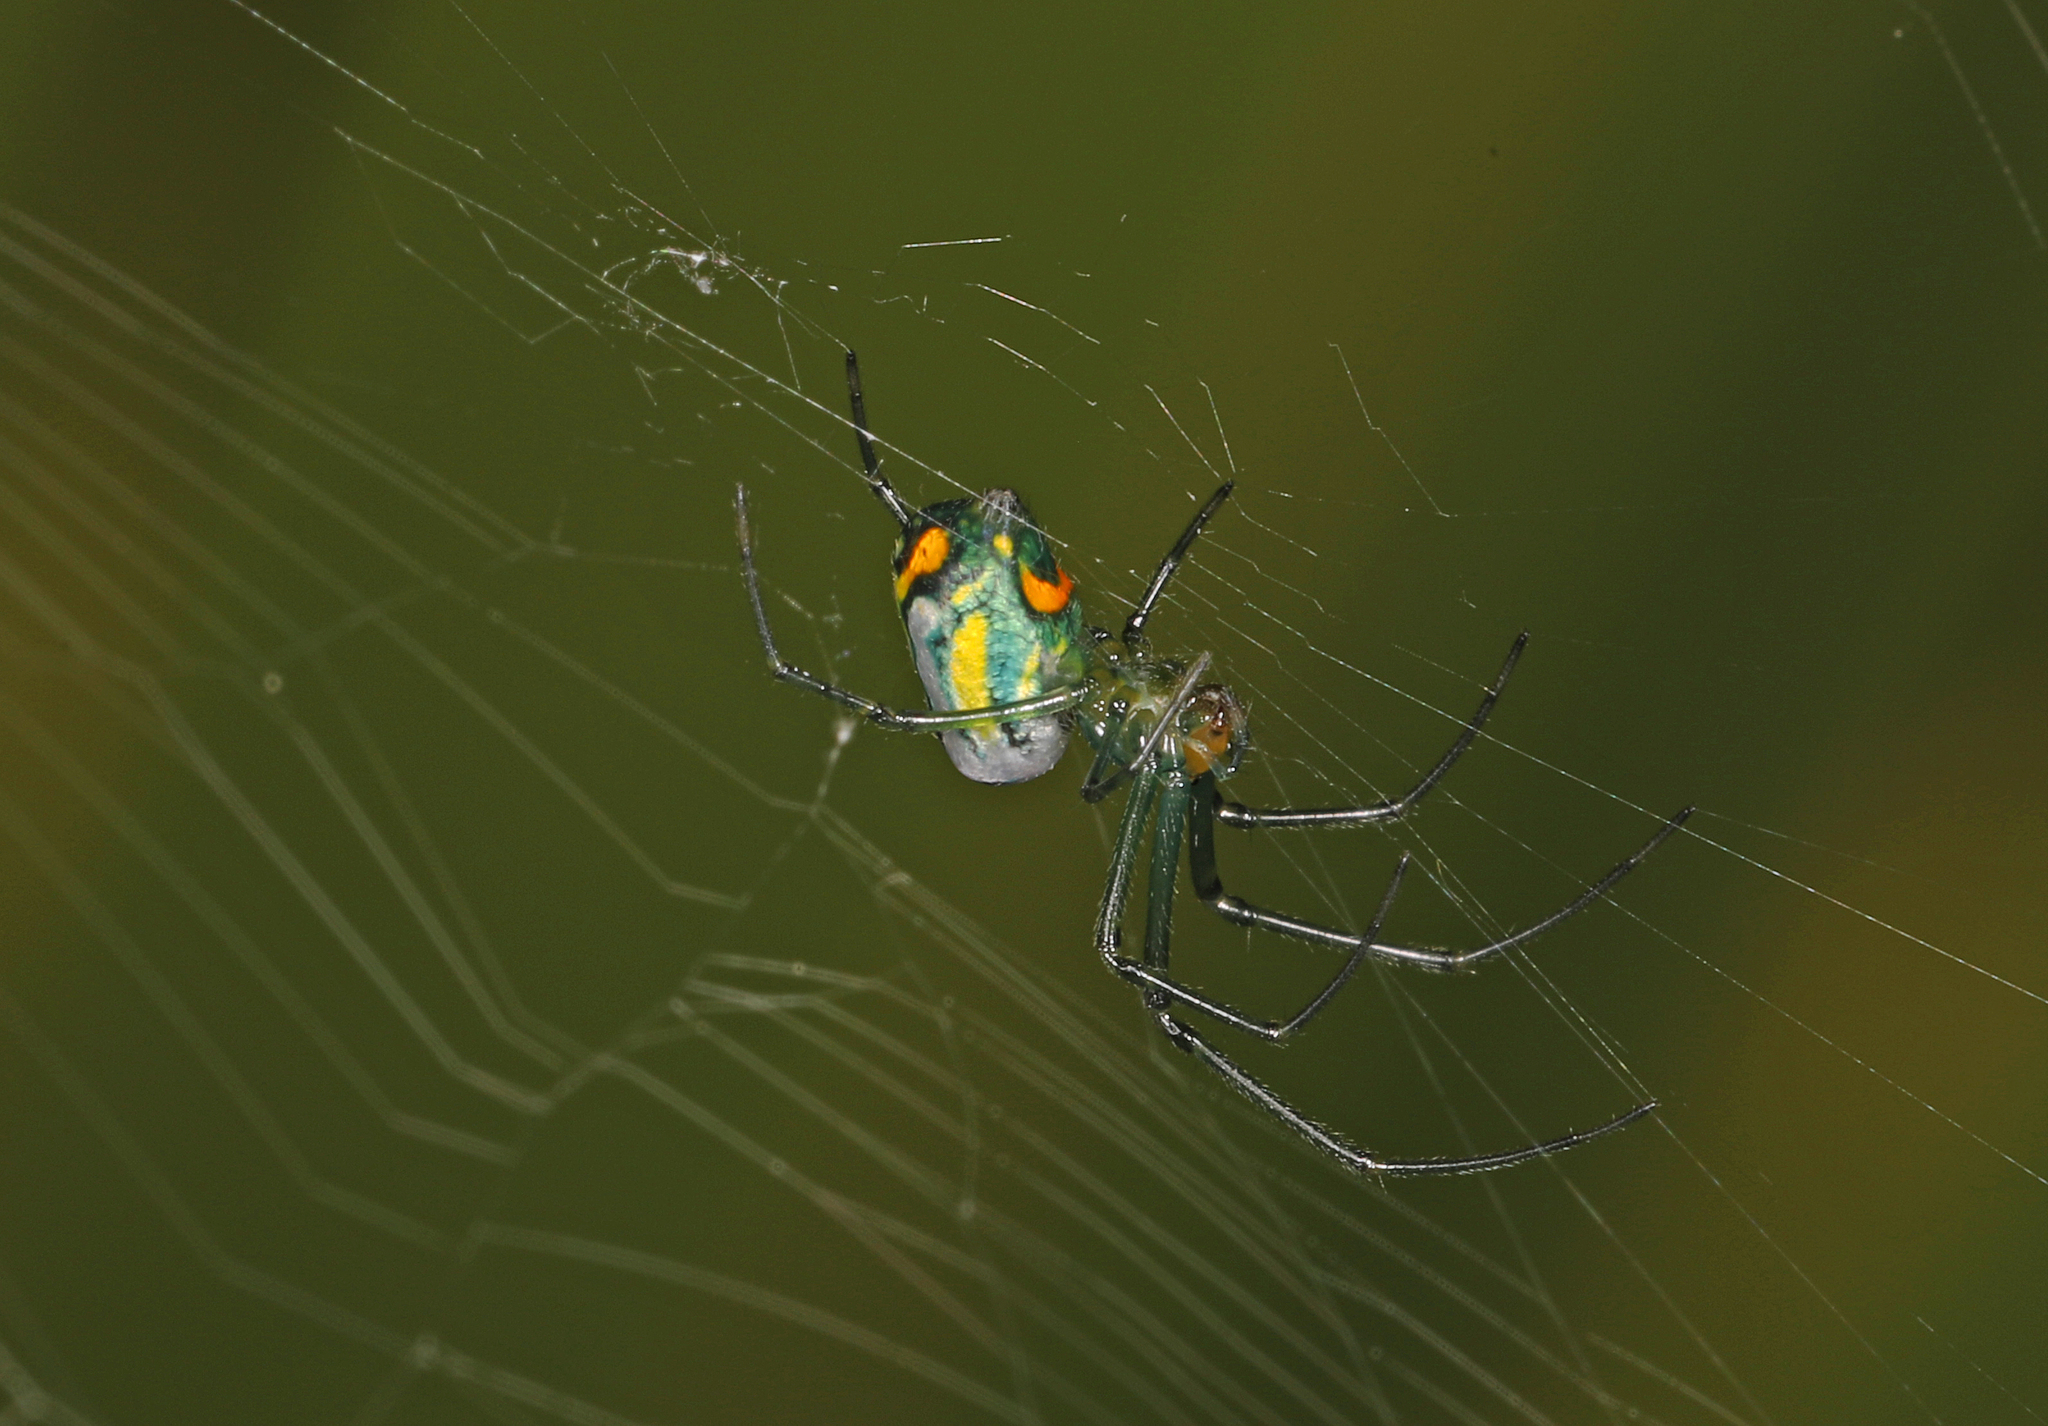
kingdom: Animalia
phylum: Arthropoda
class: Arachnida
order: Araneae
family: Tetragnathidae
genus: Leucauge
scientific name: Leucauge argyrobapta
